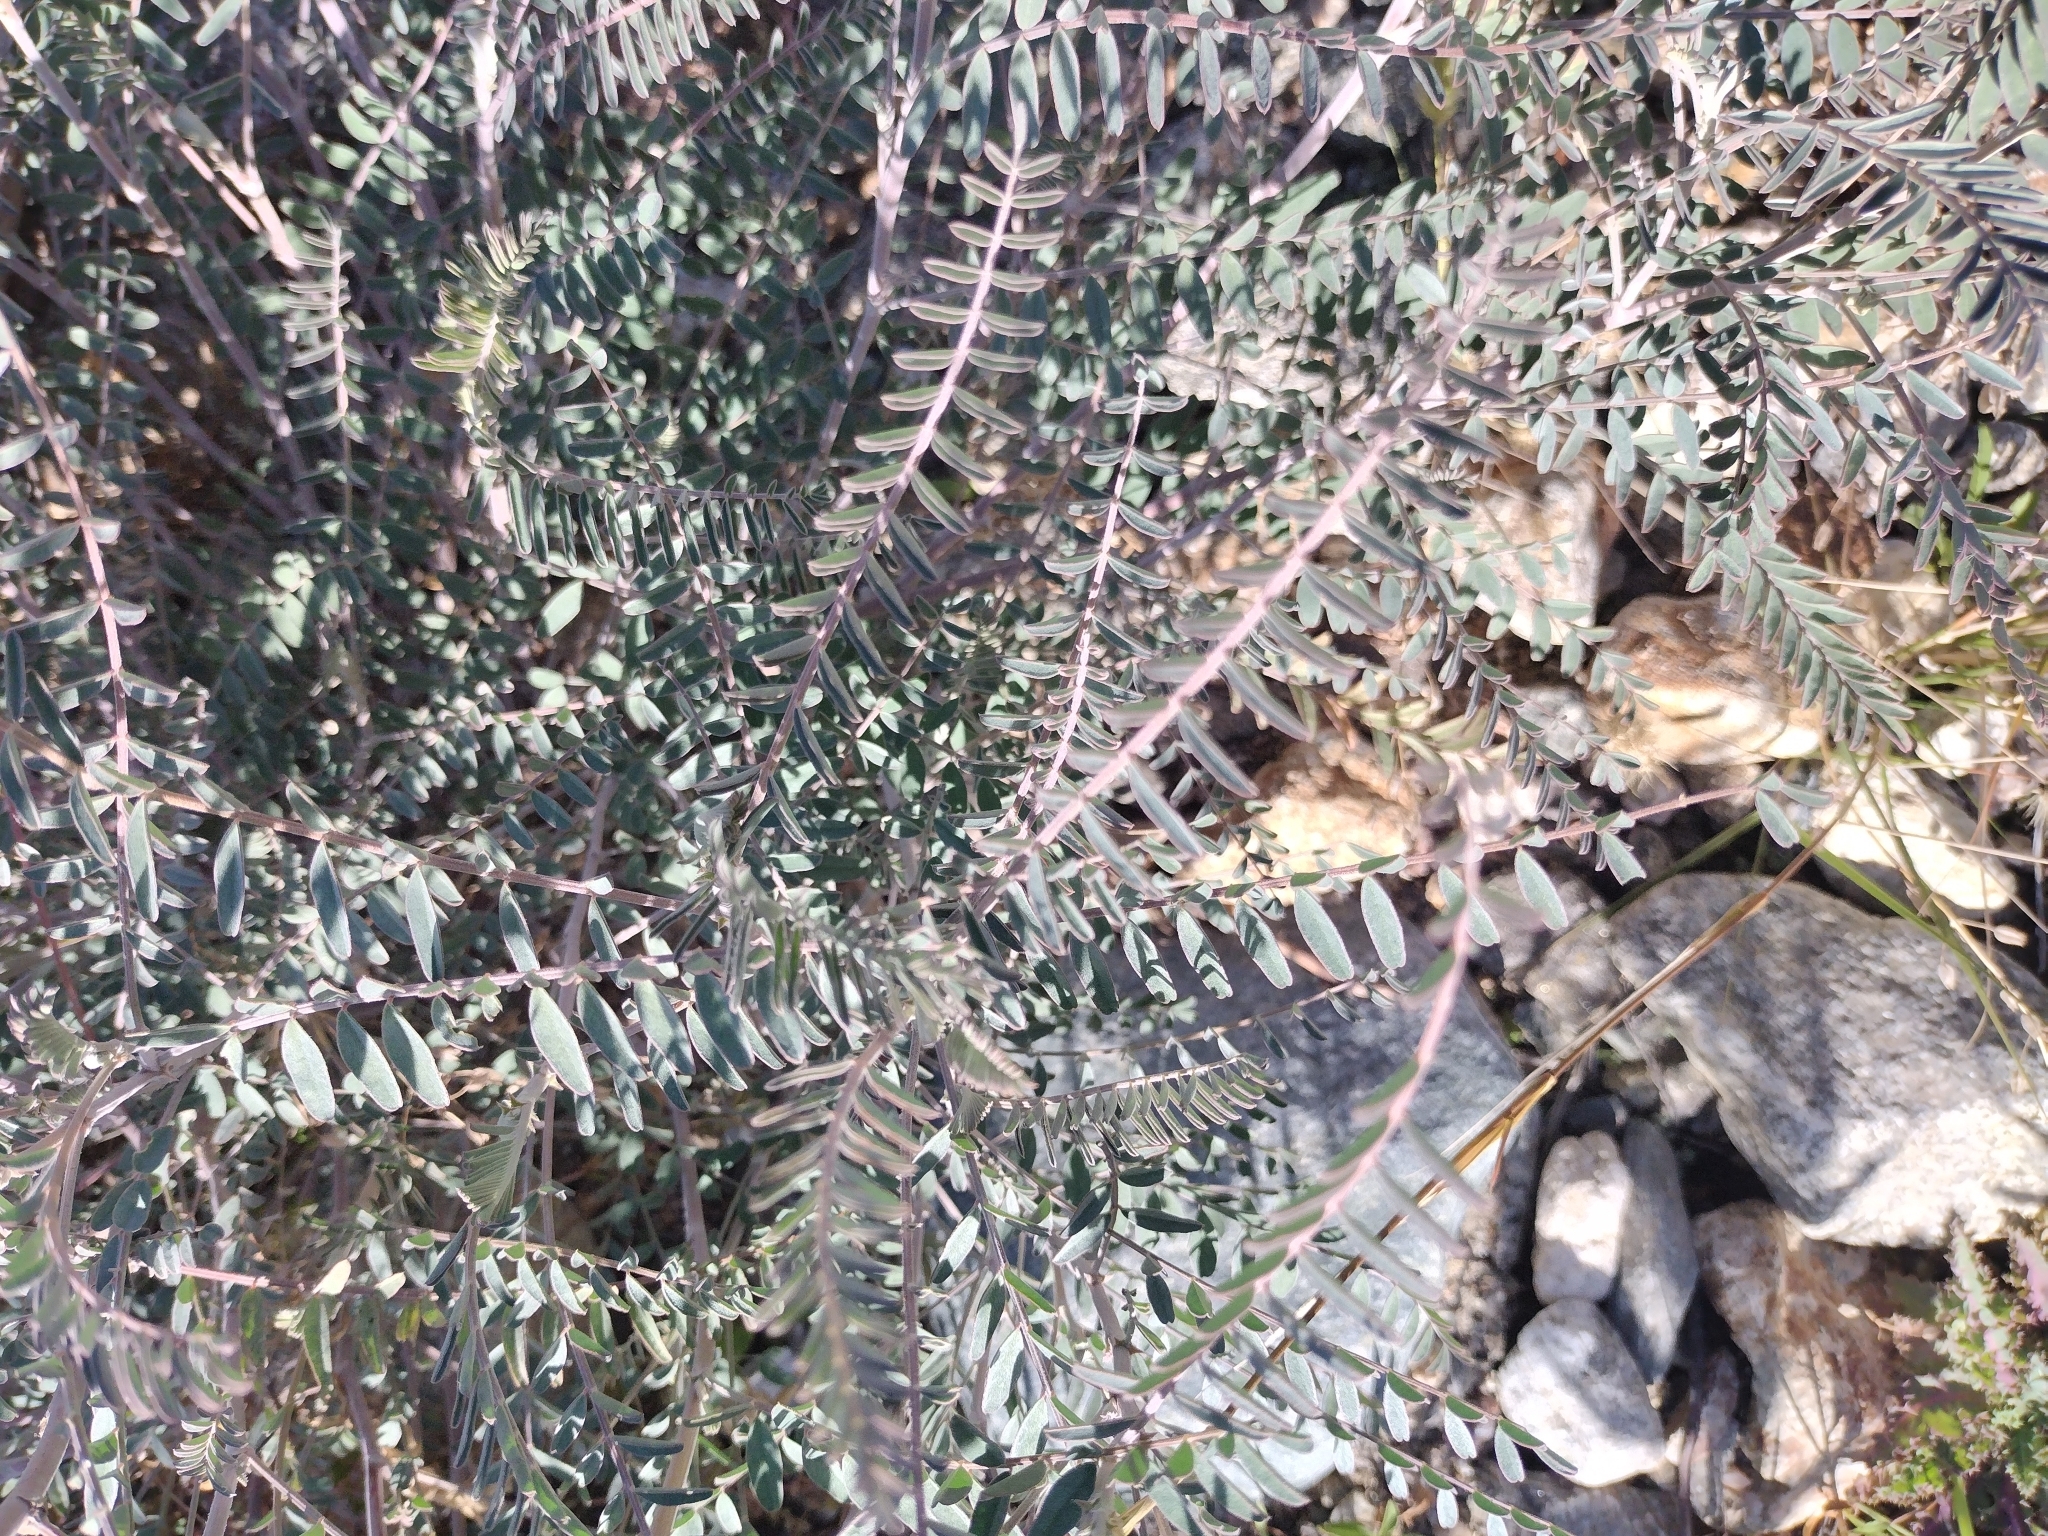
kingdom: Plantae
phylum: Tracheophyta
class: Magnoliopsida
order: Fabales
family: Fabaceae
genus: Astragalus
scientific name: Astragalus trichopodus
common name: Santa barbara milk-vetch
